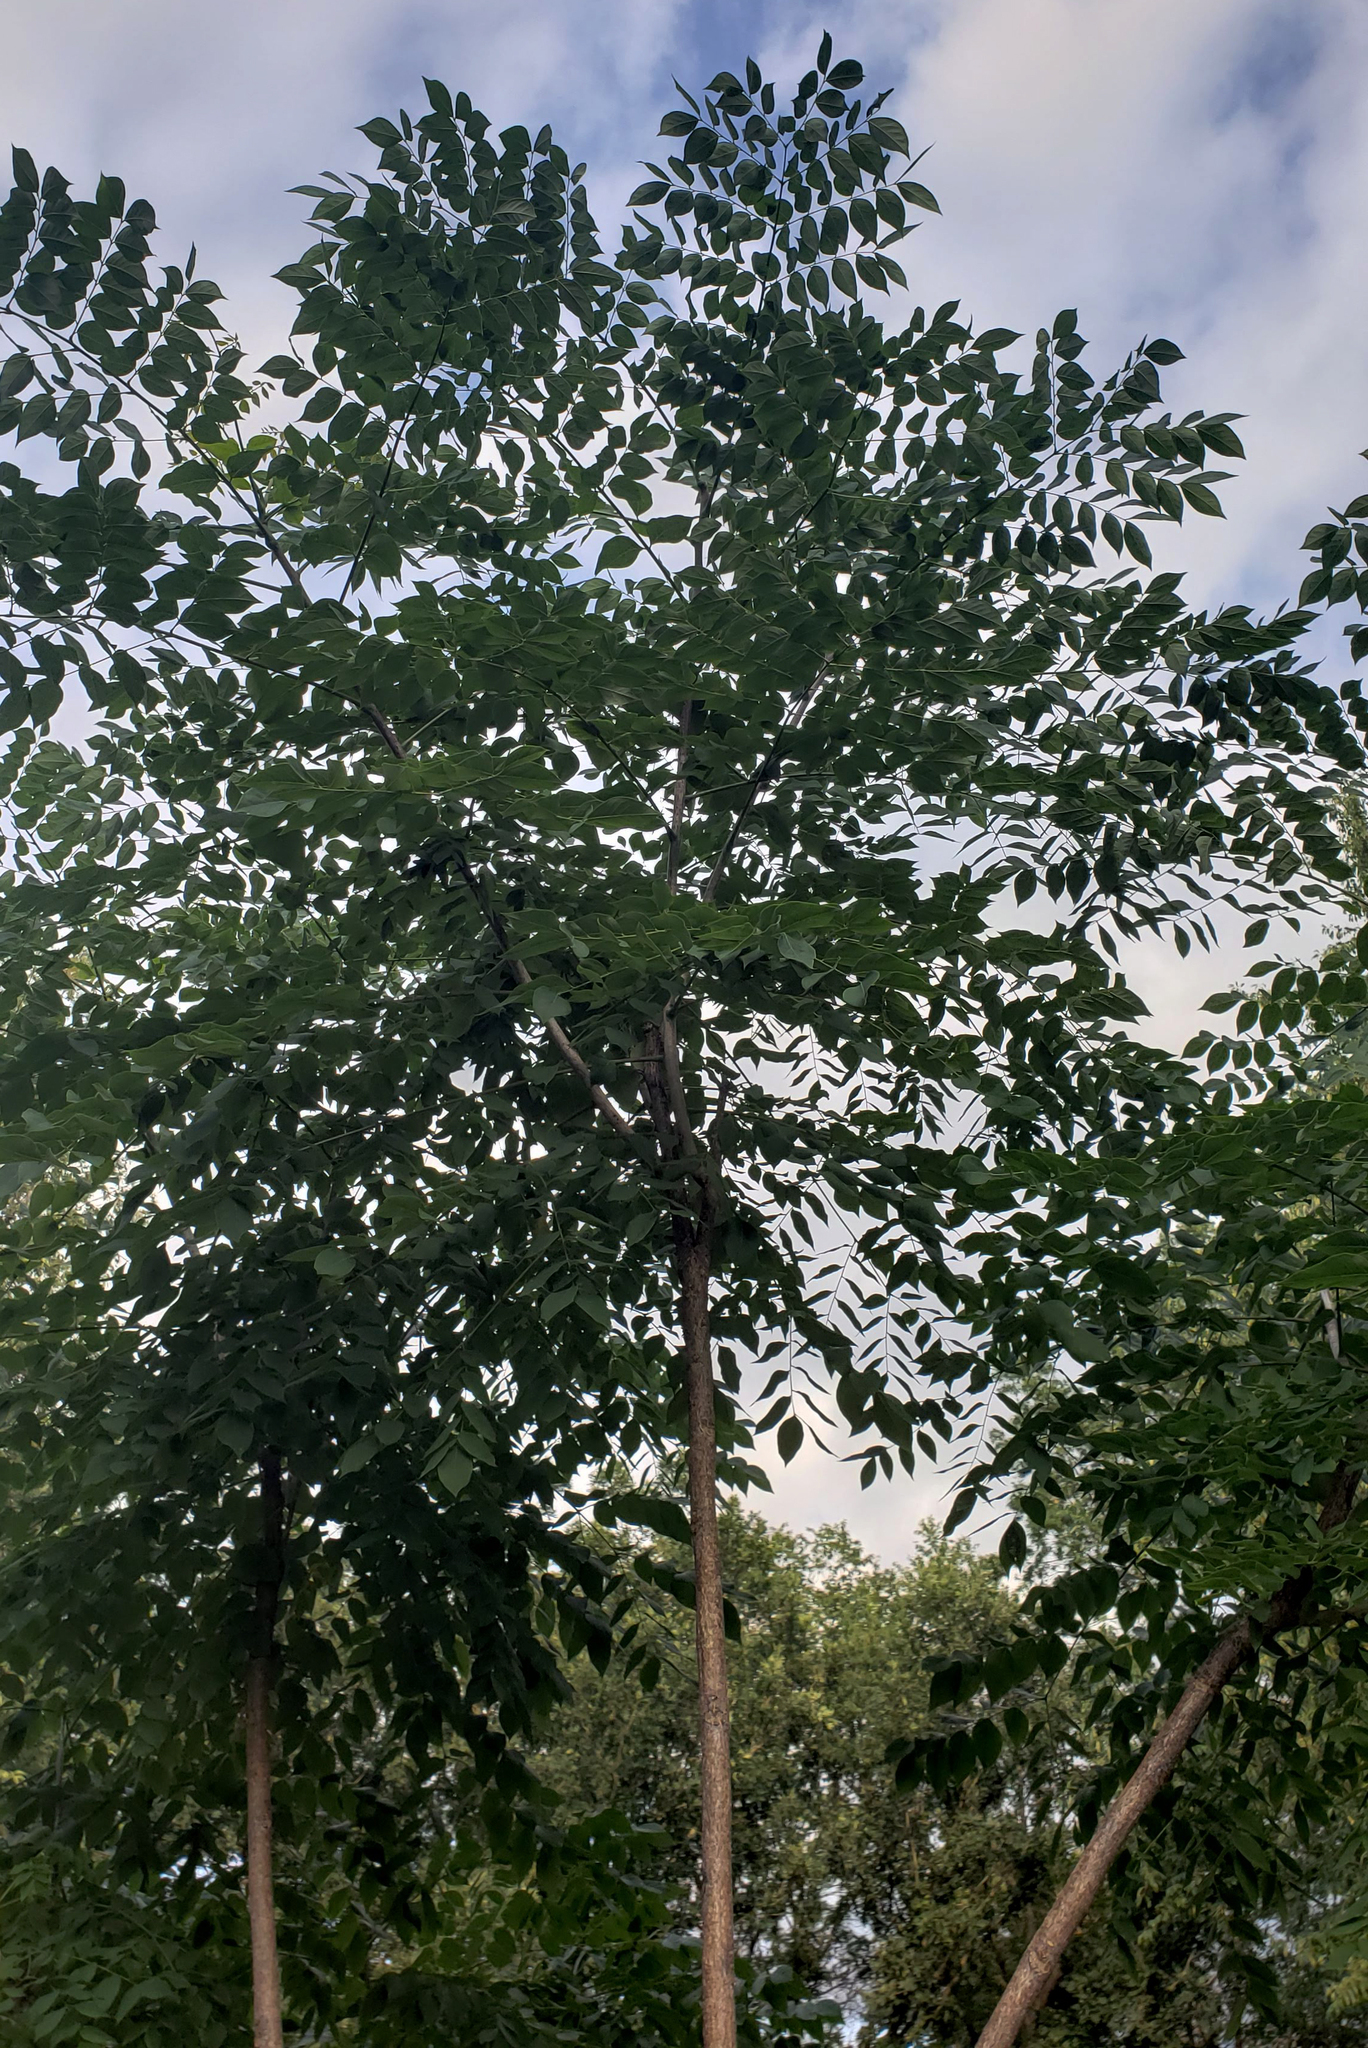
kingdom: Plantae
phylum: Tracheophyta
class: Magnoliopsida
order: Fabales
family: Fabaceae
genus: Gymnocladus
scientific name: Gymnocladus dioicus
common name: Kentucky coffee-tree
